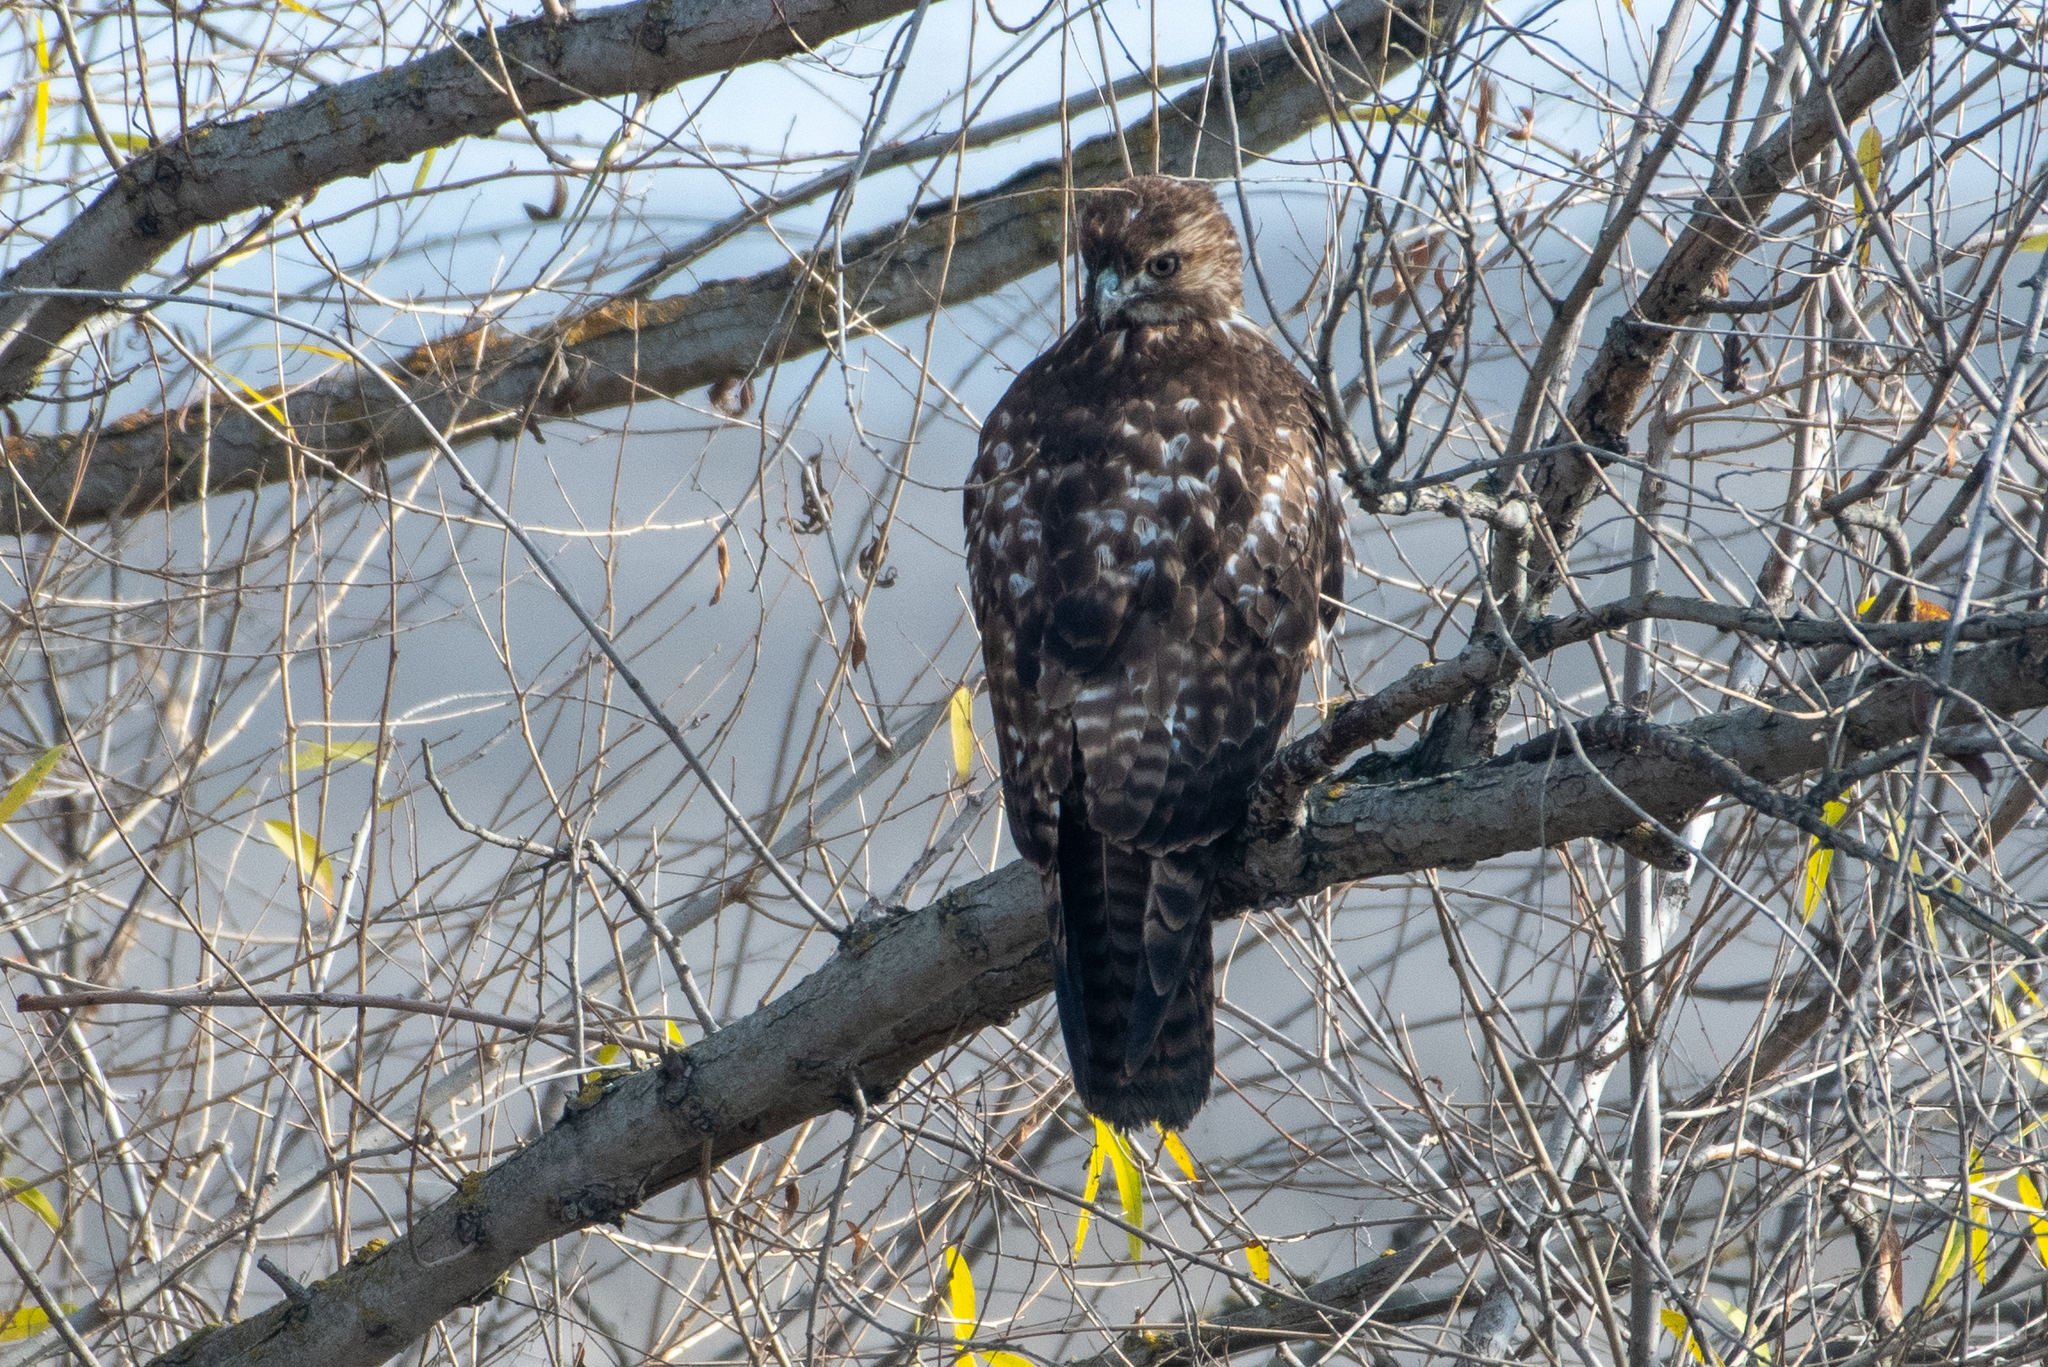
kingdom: Animalia
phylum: Chordata
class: Aves
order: Accipitriformes
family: Accipitridae
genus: Buteo
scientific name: Buteo jamaicensis
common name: Red-tailed hawk
